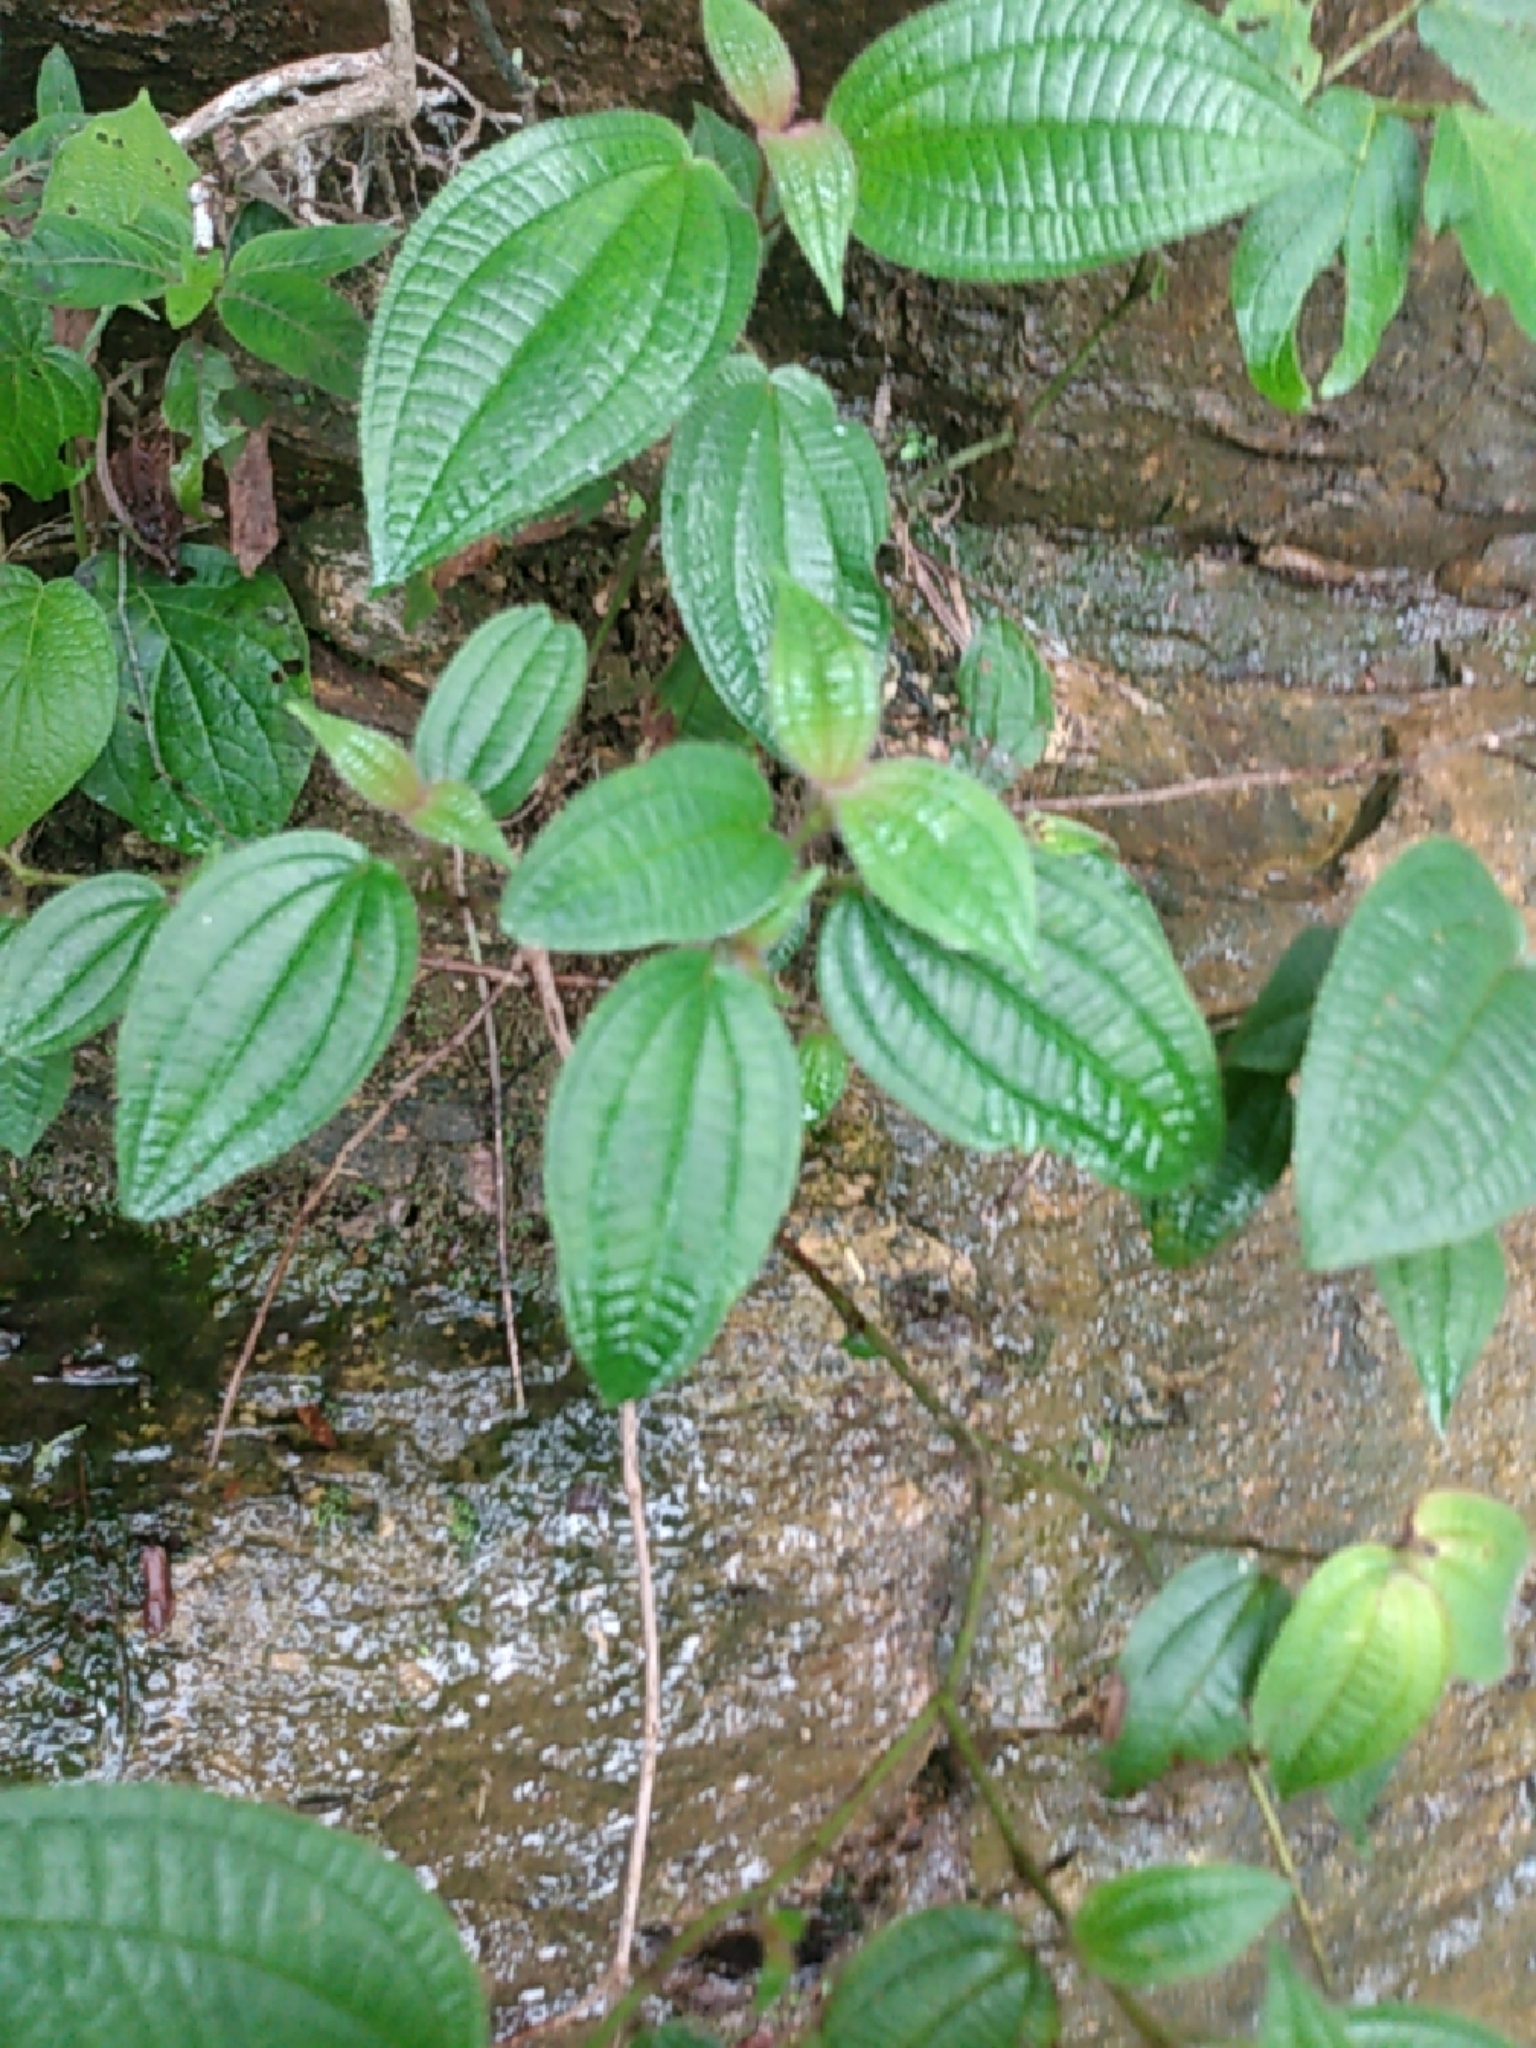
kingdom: Plantae
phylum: Tracheophyta
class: Magnoliopsida
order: Myrtales
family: Melastomataceae
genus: Miconia
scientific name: Miconia crenata
